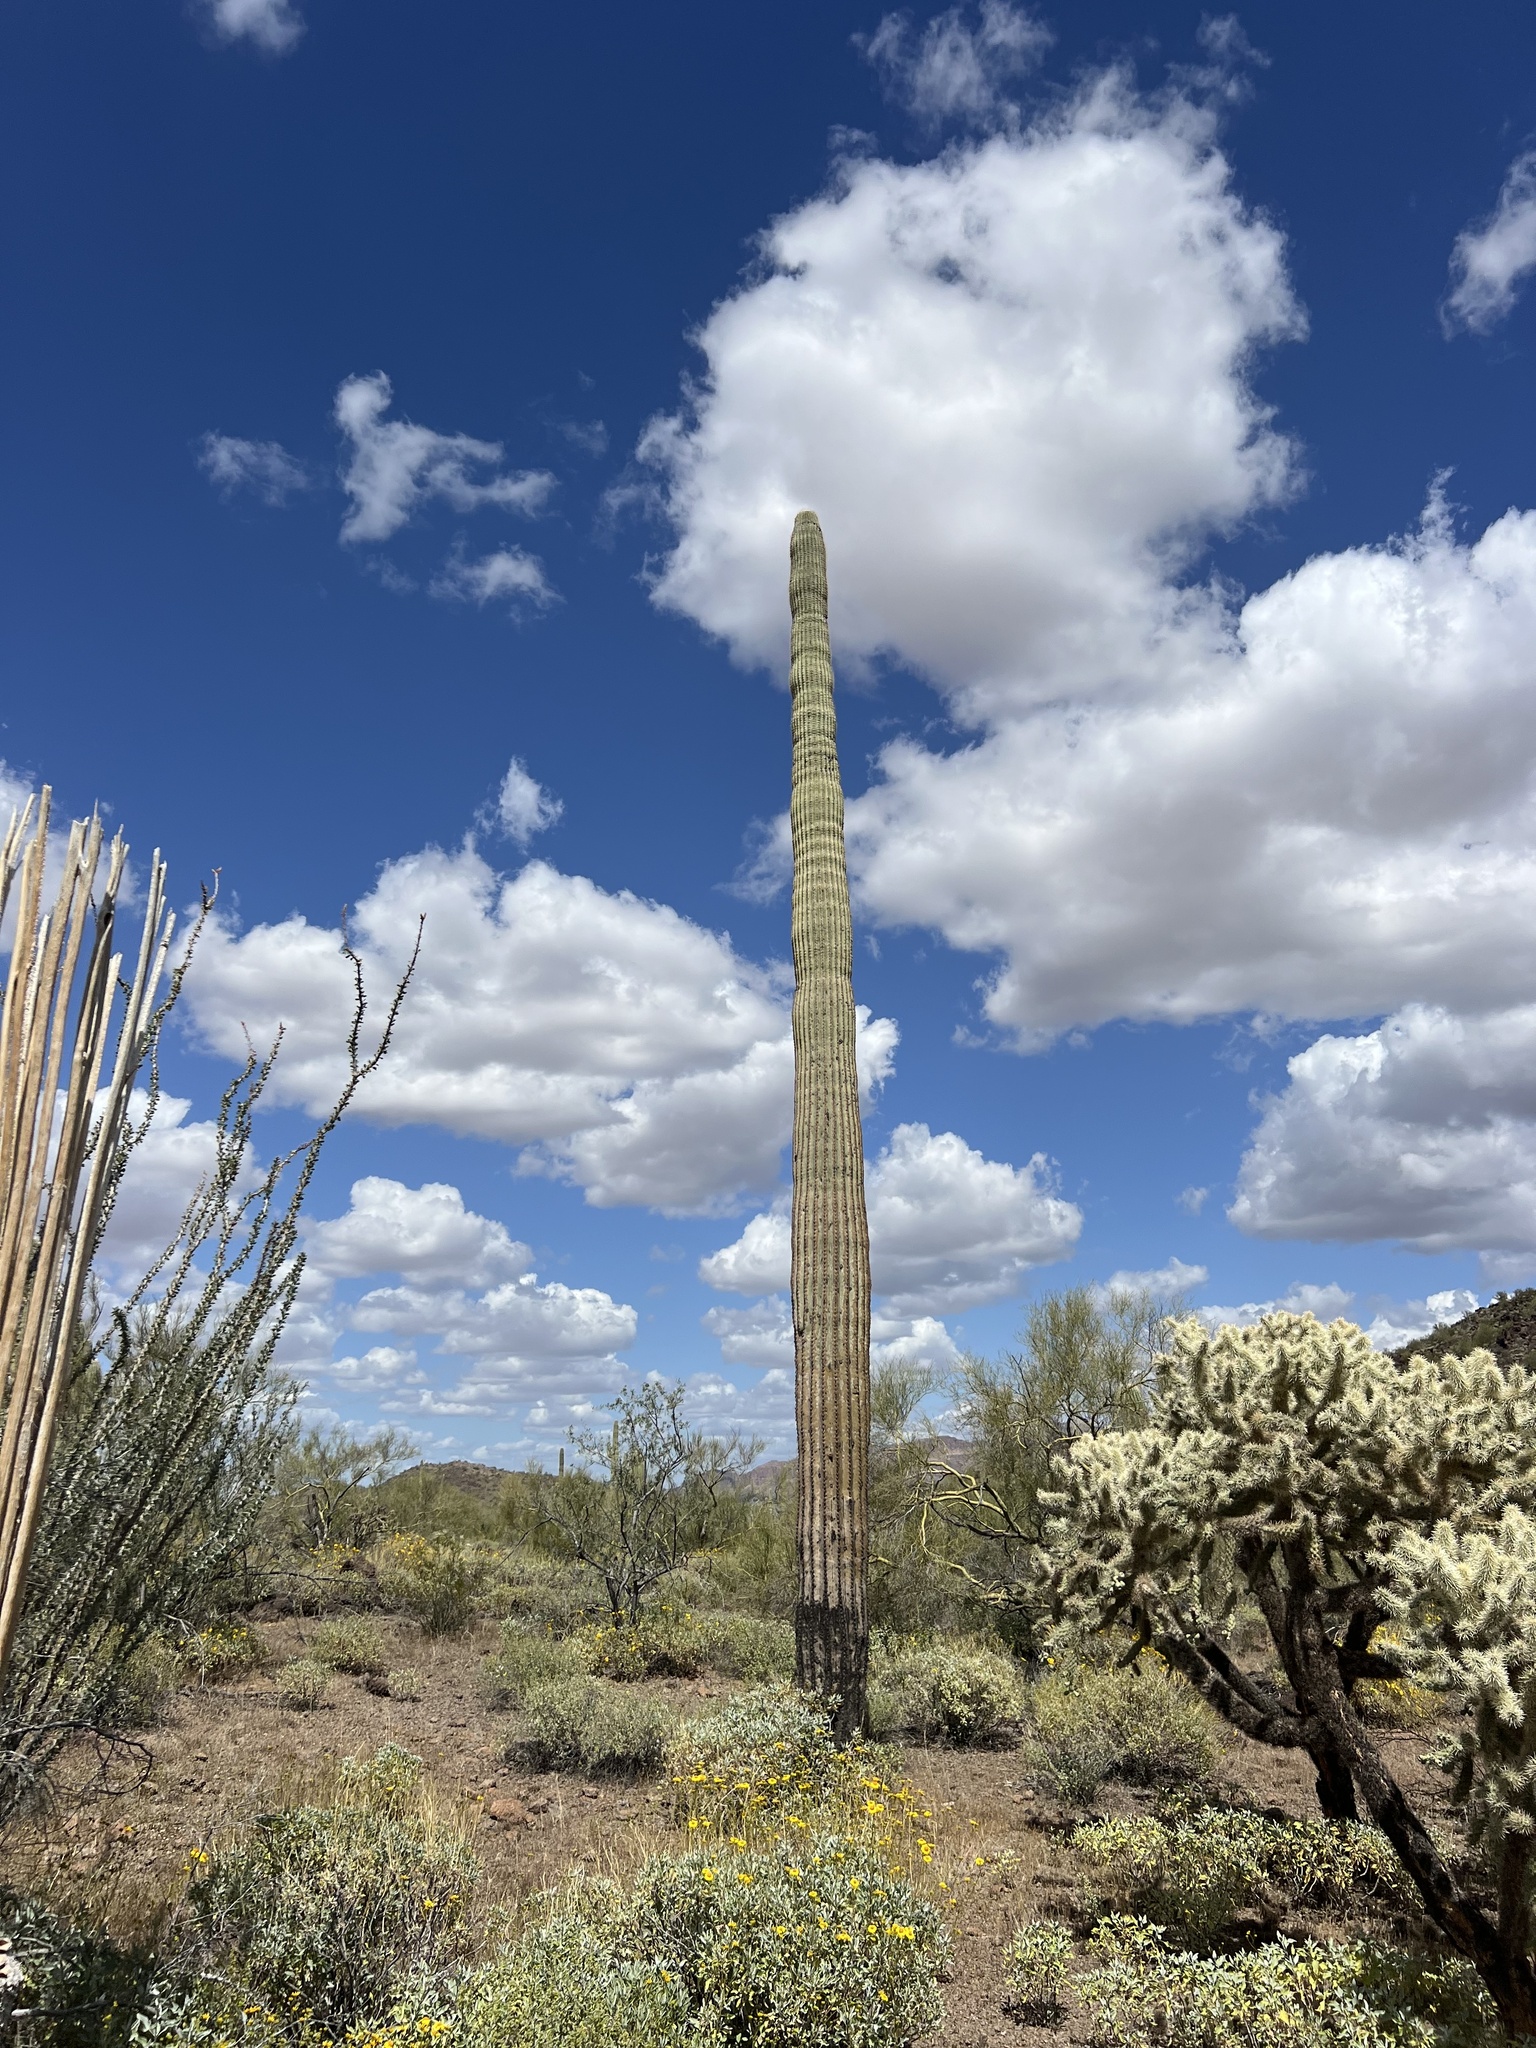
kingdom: Plantae
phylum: Tracheophyta
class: Magnoliopsida
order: Caryophyllales
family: Cactaceae
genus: Carnegiea
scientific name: Carnegiea gigantea
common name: Saguaro
